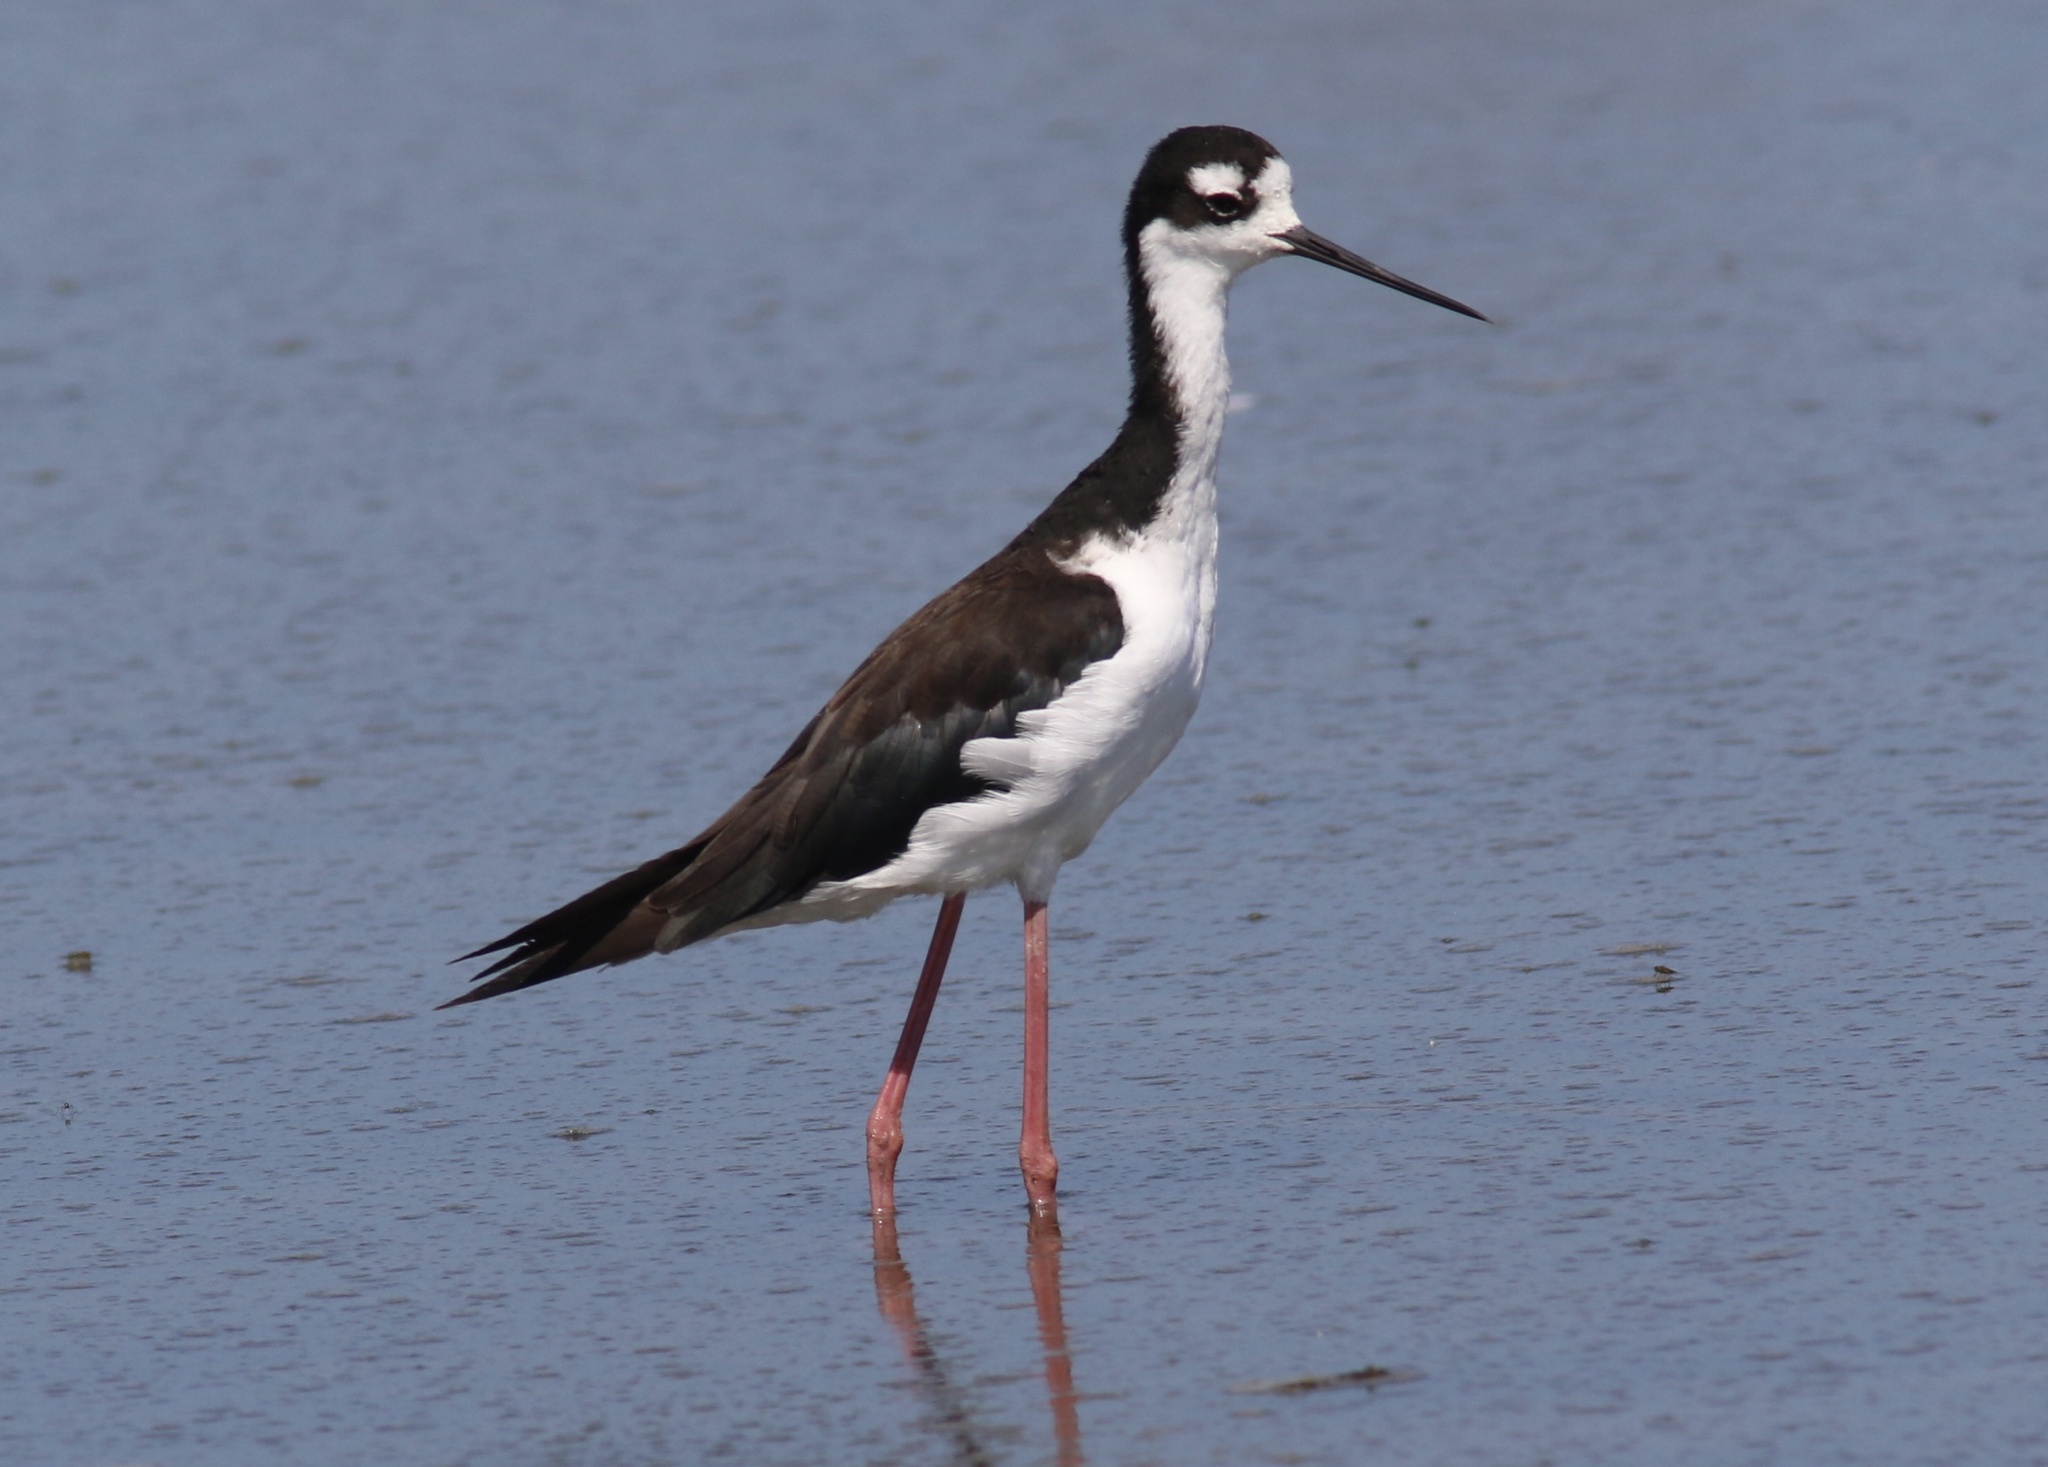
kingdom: Animalia
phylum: Chordata
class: Aves
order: Charadriiformes
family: Recurvirostridae
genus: Himantopus
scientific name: Himantopus mexicanus
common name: Black-necked stilt
